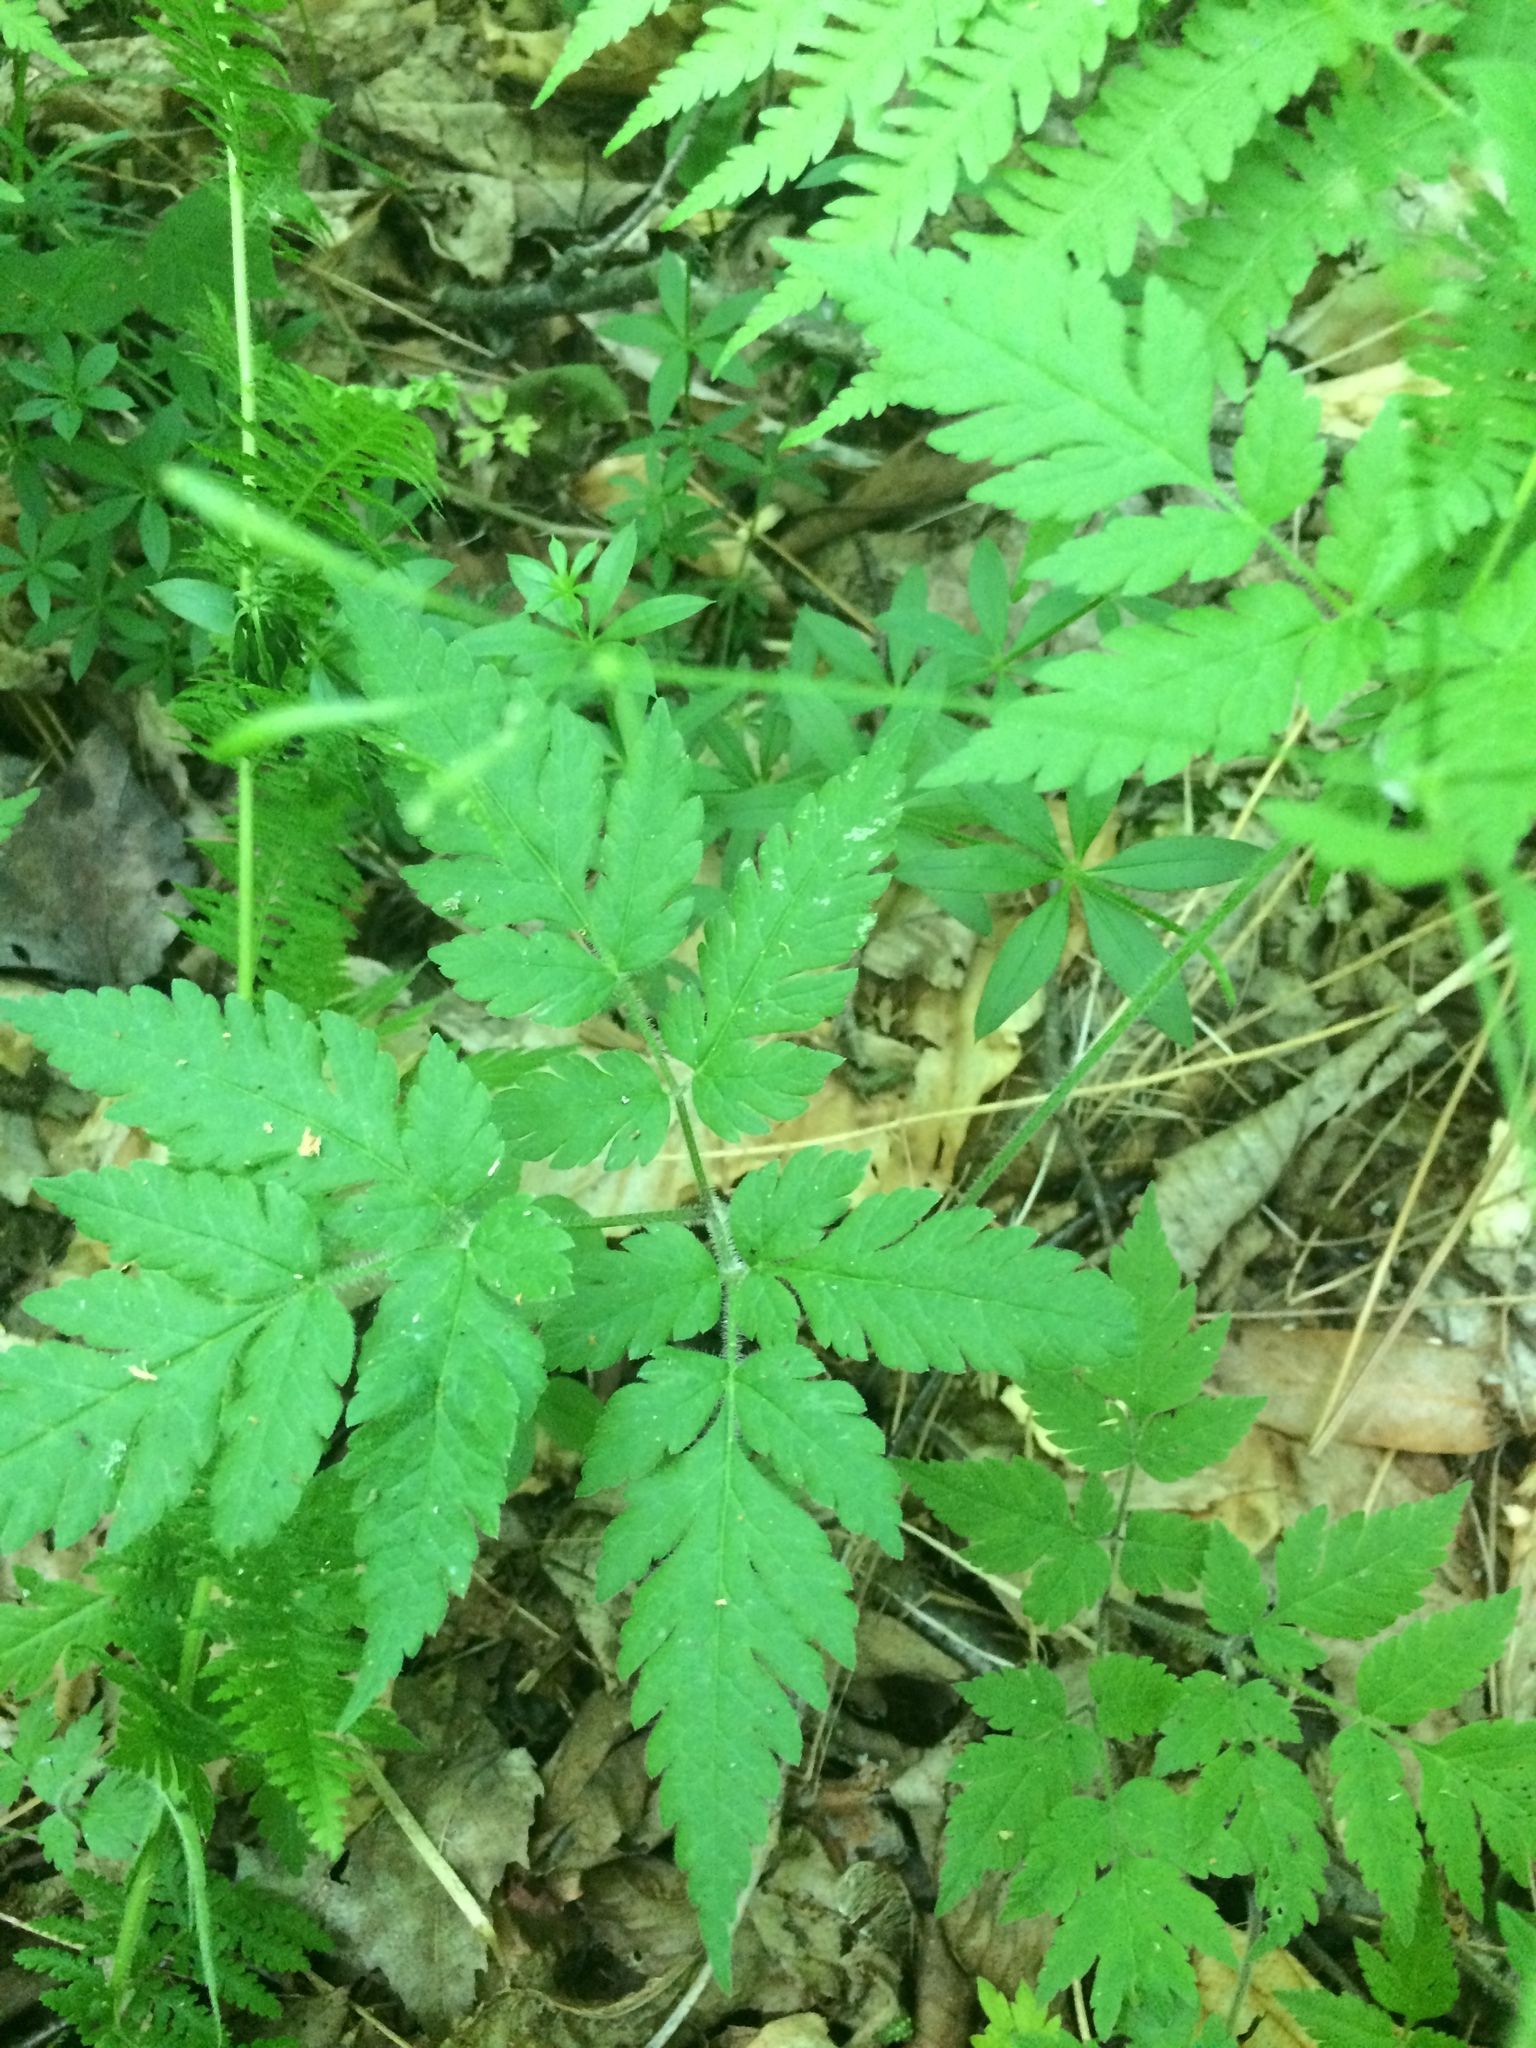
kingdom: Plantae
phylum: Tracheophyta
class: Magnoliopsida
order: Apiales
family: Apiaceae
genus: Osmorhiza
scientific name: Osmorhiza claytonii
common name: Hairy sweet cicely
